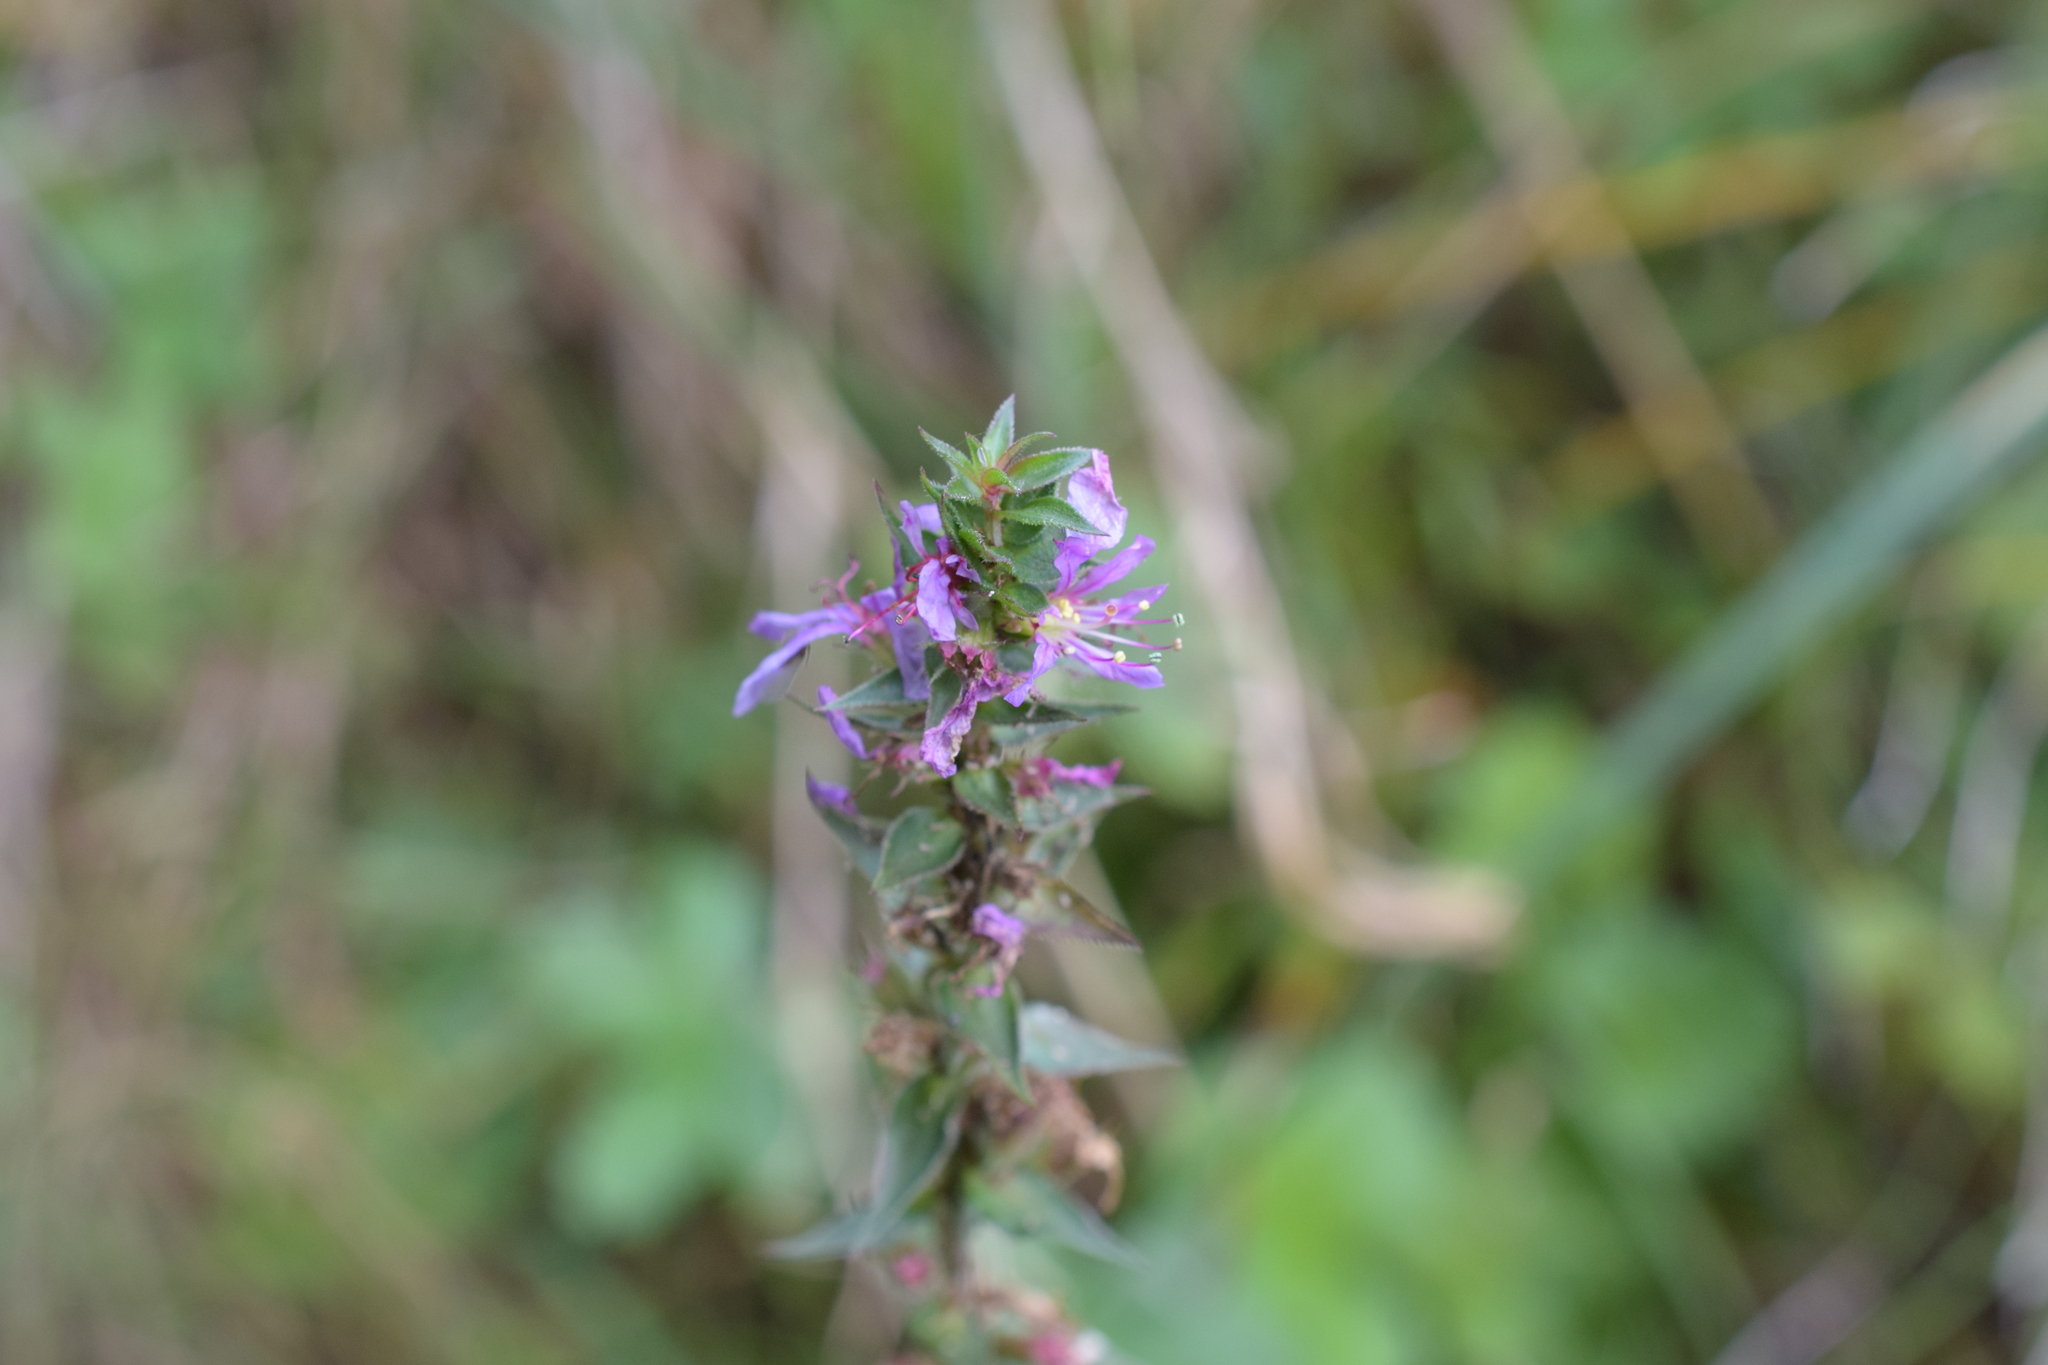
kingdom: Plantae
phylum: Tracheophyta
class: Magnoliopsida
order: Myrtales
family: Lythraceae
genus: Lythrum
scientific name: Lythrum salicaria
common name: Purple loosestrife
